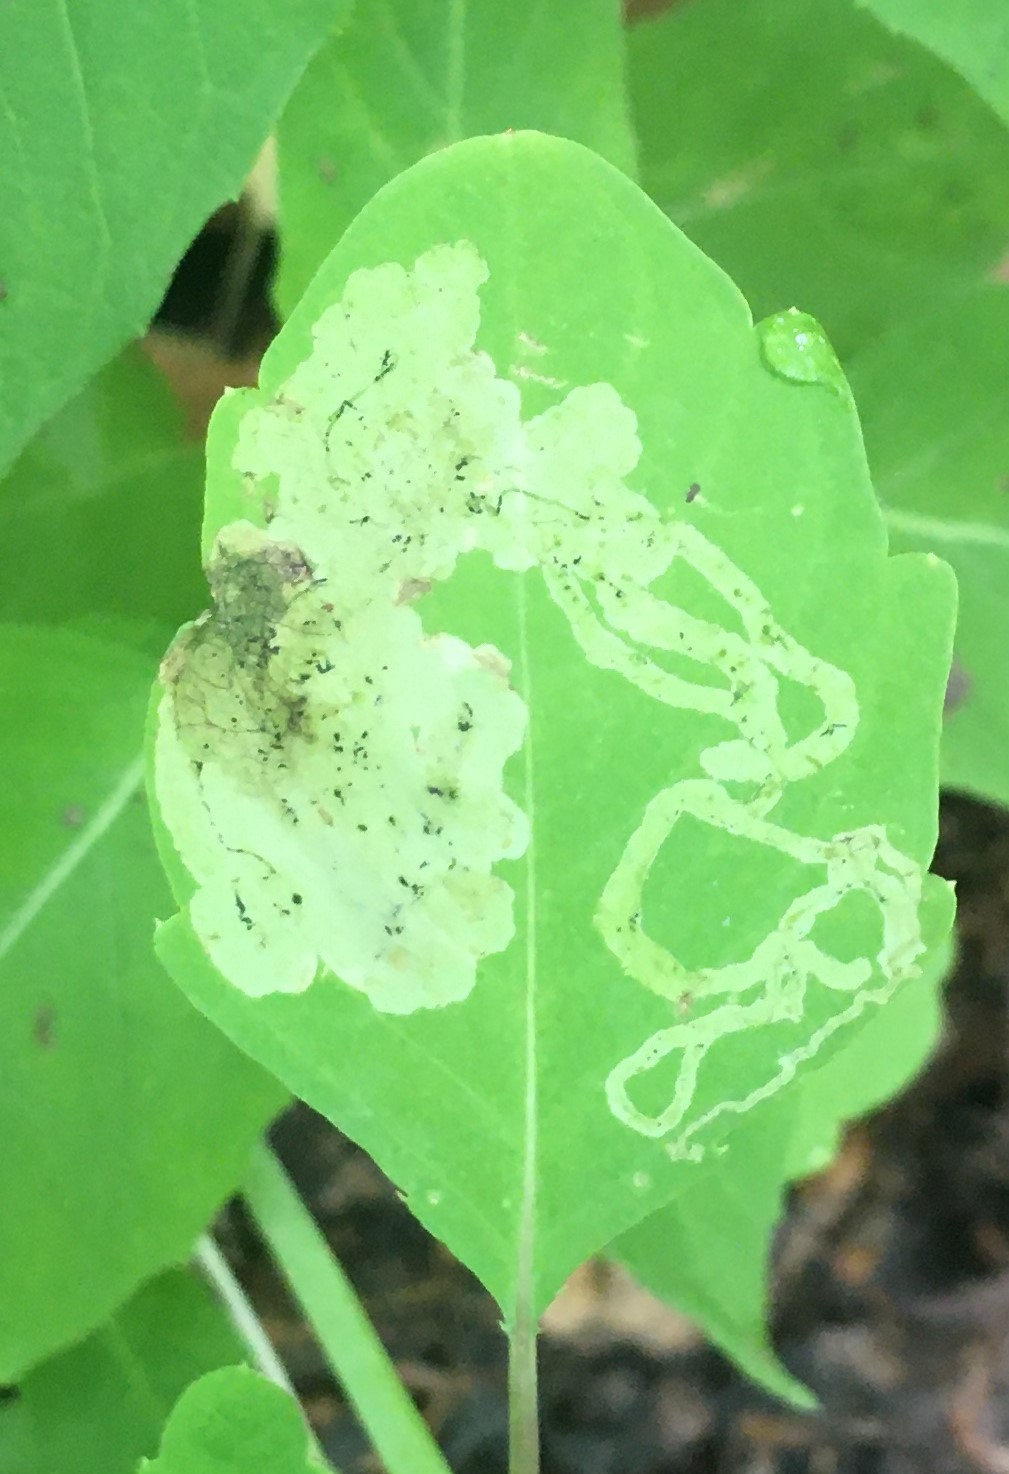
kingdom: Animalia
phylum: Arthropoda
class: Insecta
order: Diptera
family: Agromyzidae
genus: Phytoliriomyza
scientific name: Phytoliriomyza melampyga
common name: Jewelweed leaf-miner fly
